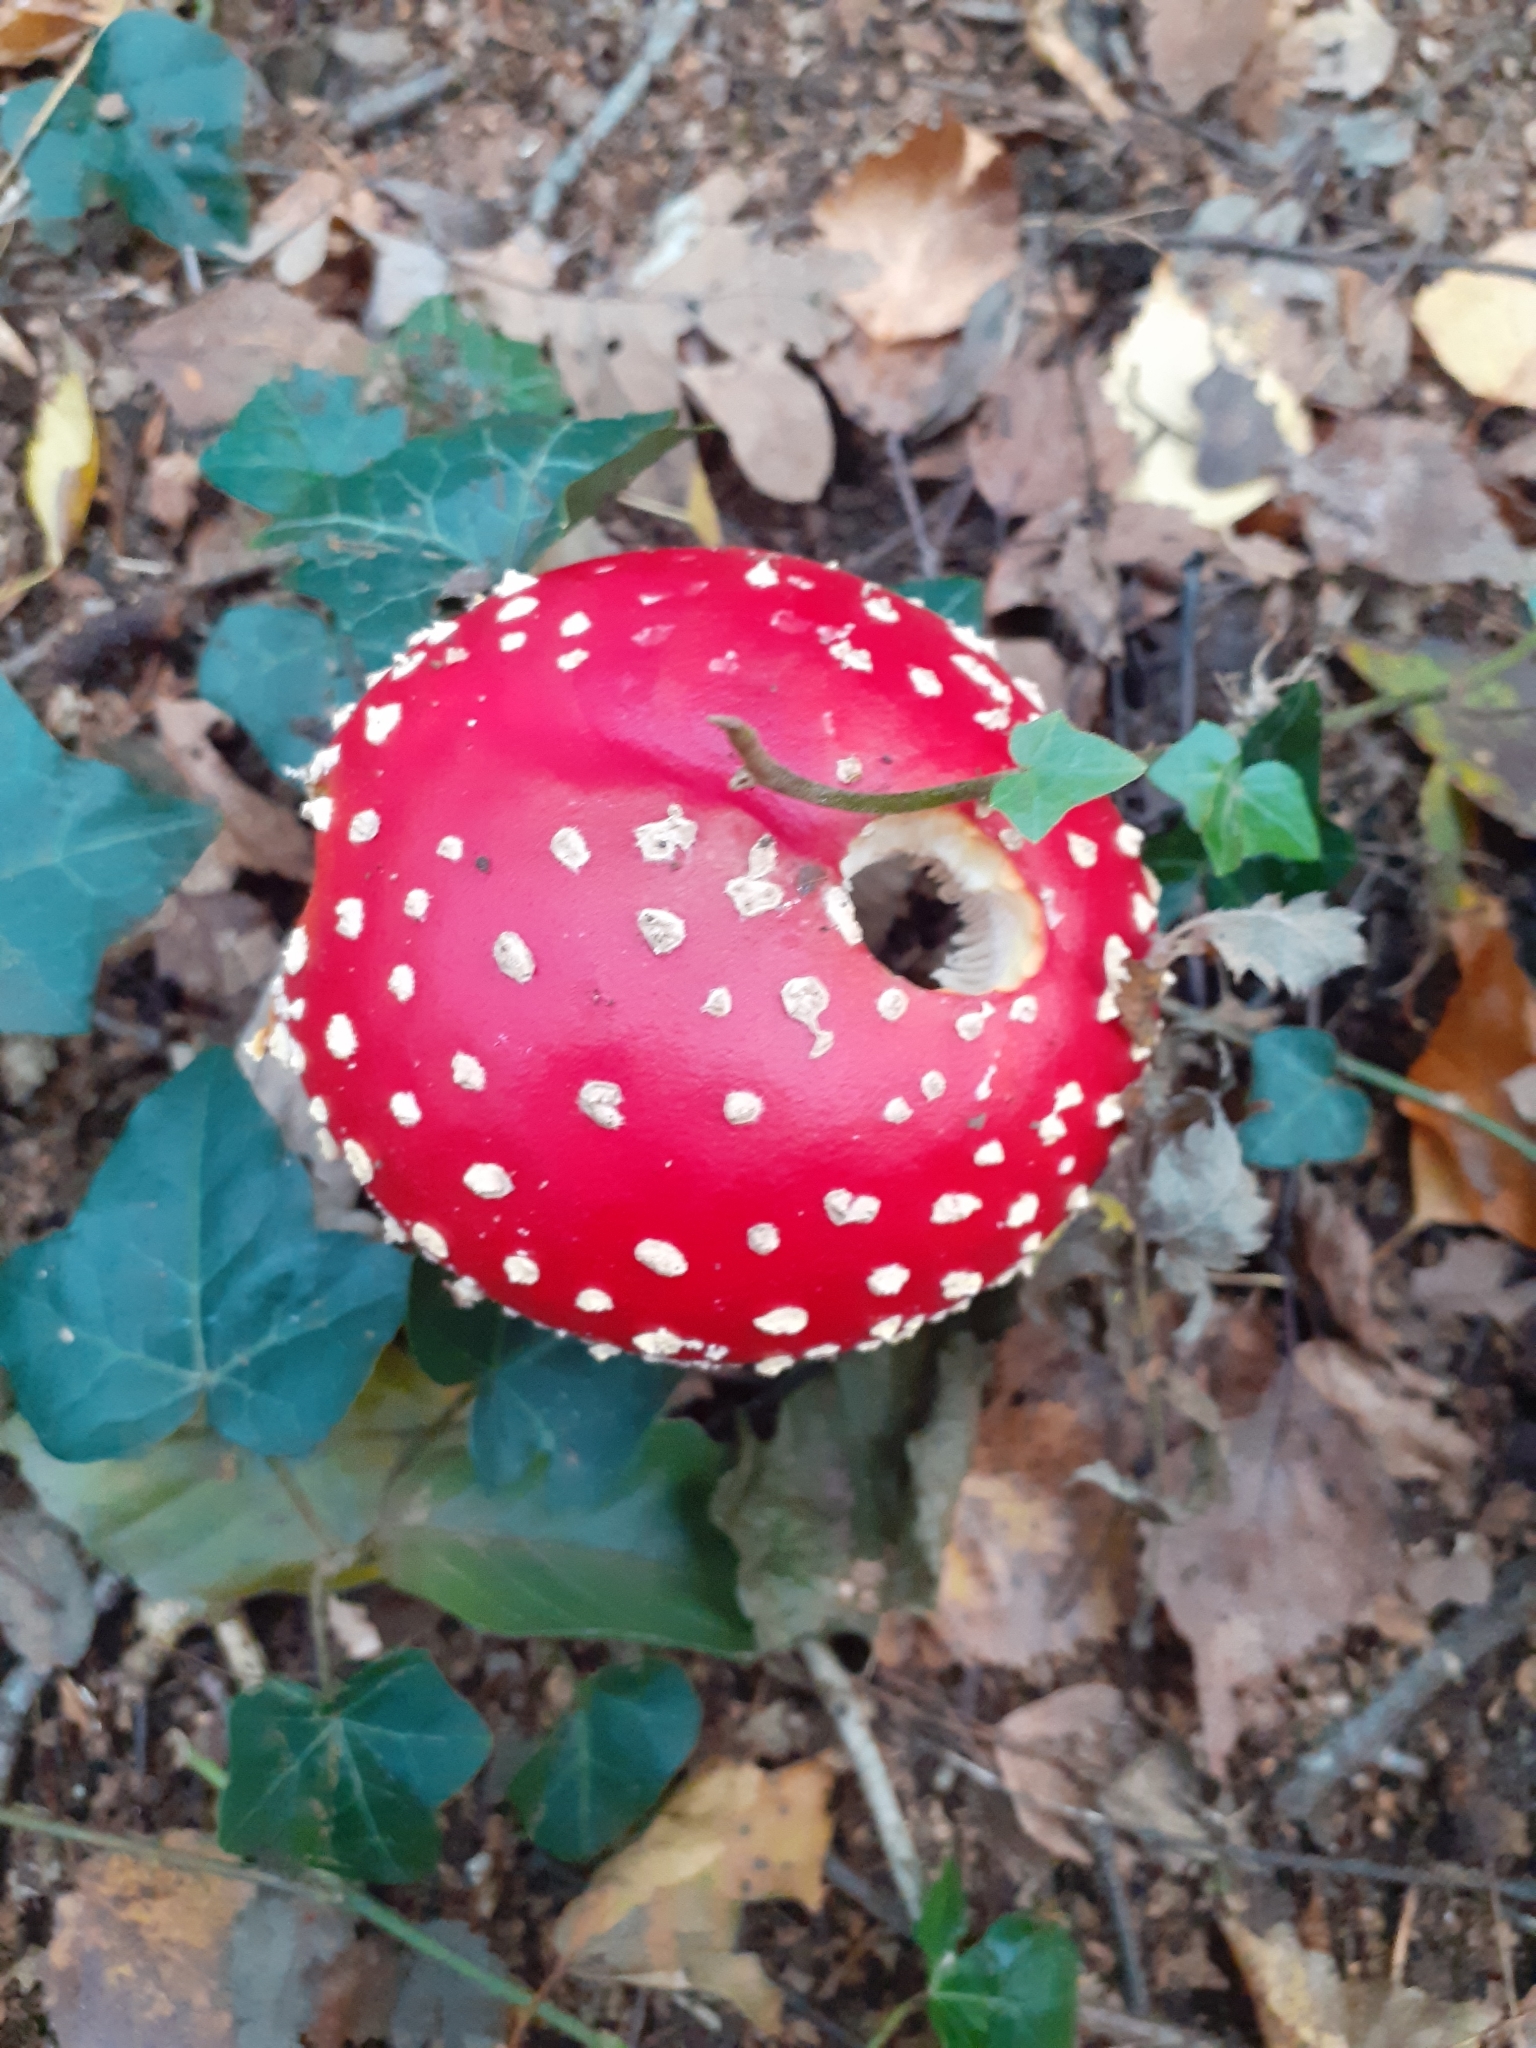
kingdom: Fungi
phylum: Basidiomycota
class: Agaricomycetes
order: Agaricales
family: Amanitaceae
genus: Amanita
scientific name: Amanita muscaria
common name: Fly agaric
